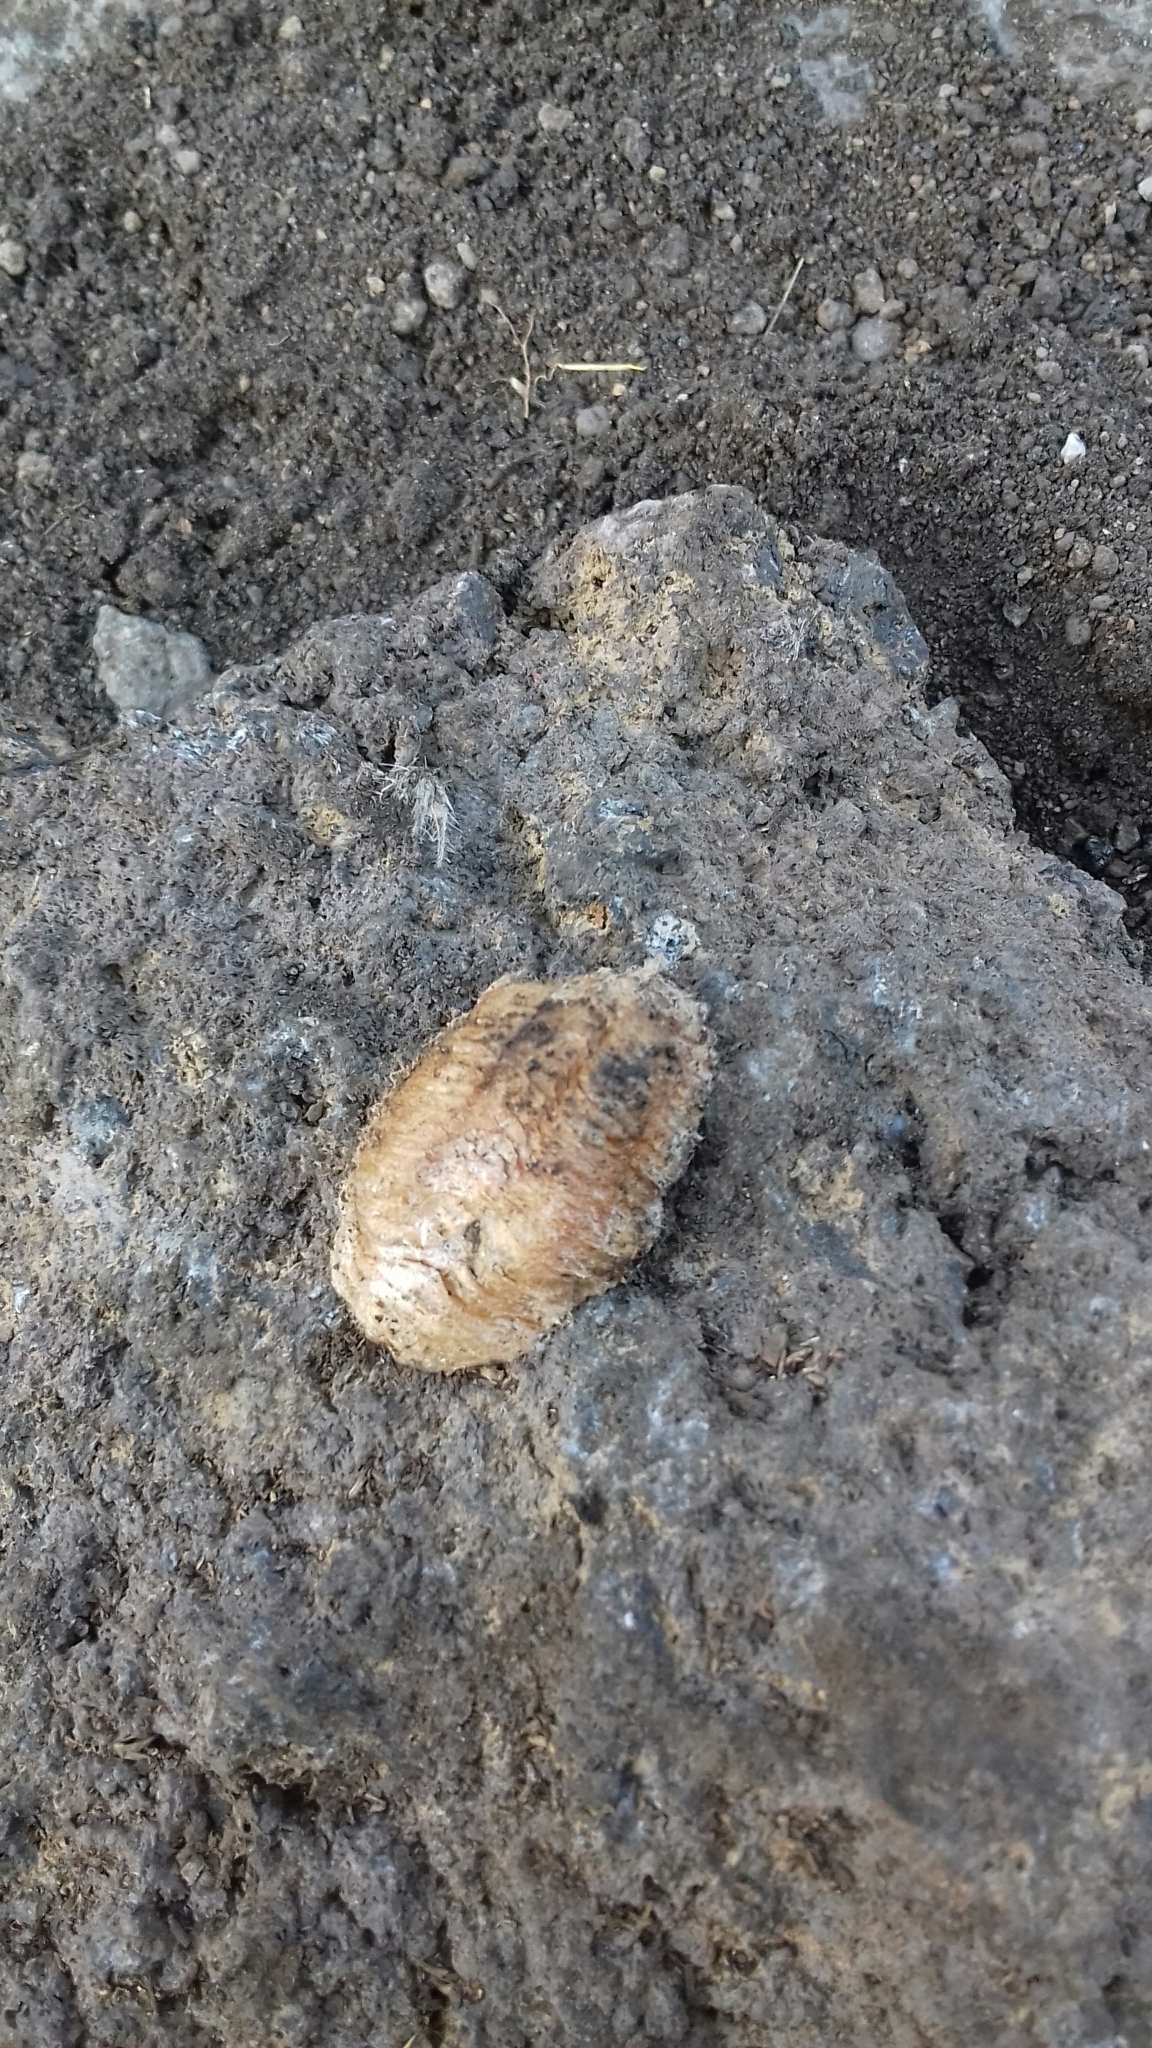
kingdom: Animalia
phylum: Arthropoda
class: Insecta
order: Mantodea
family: Mantidae
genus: Mantis
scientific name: Mantis religiosa
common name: Praying mantis
